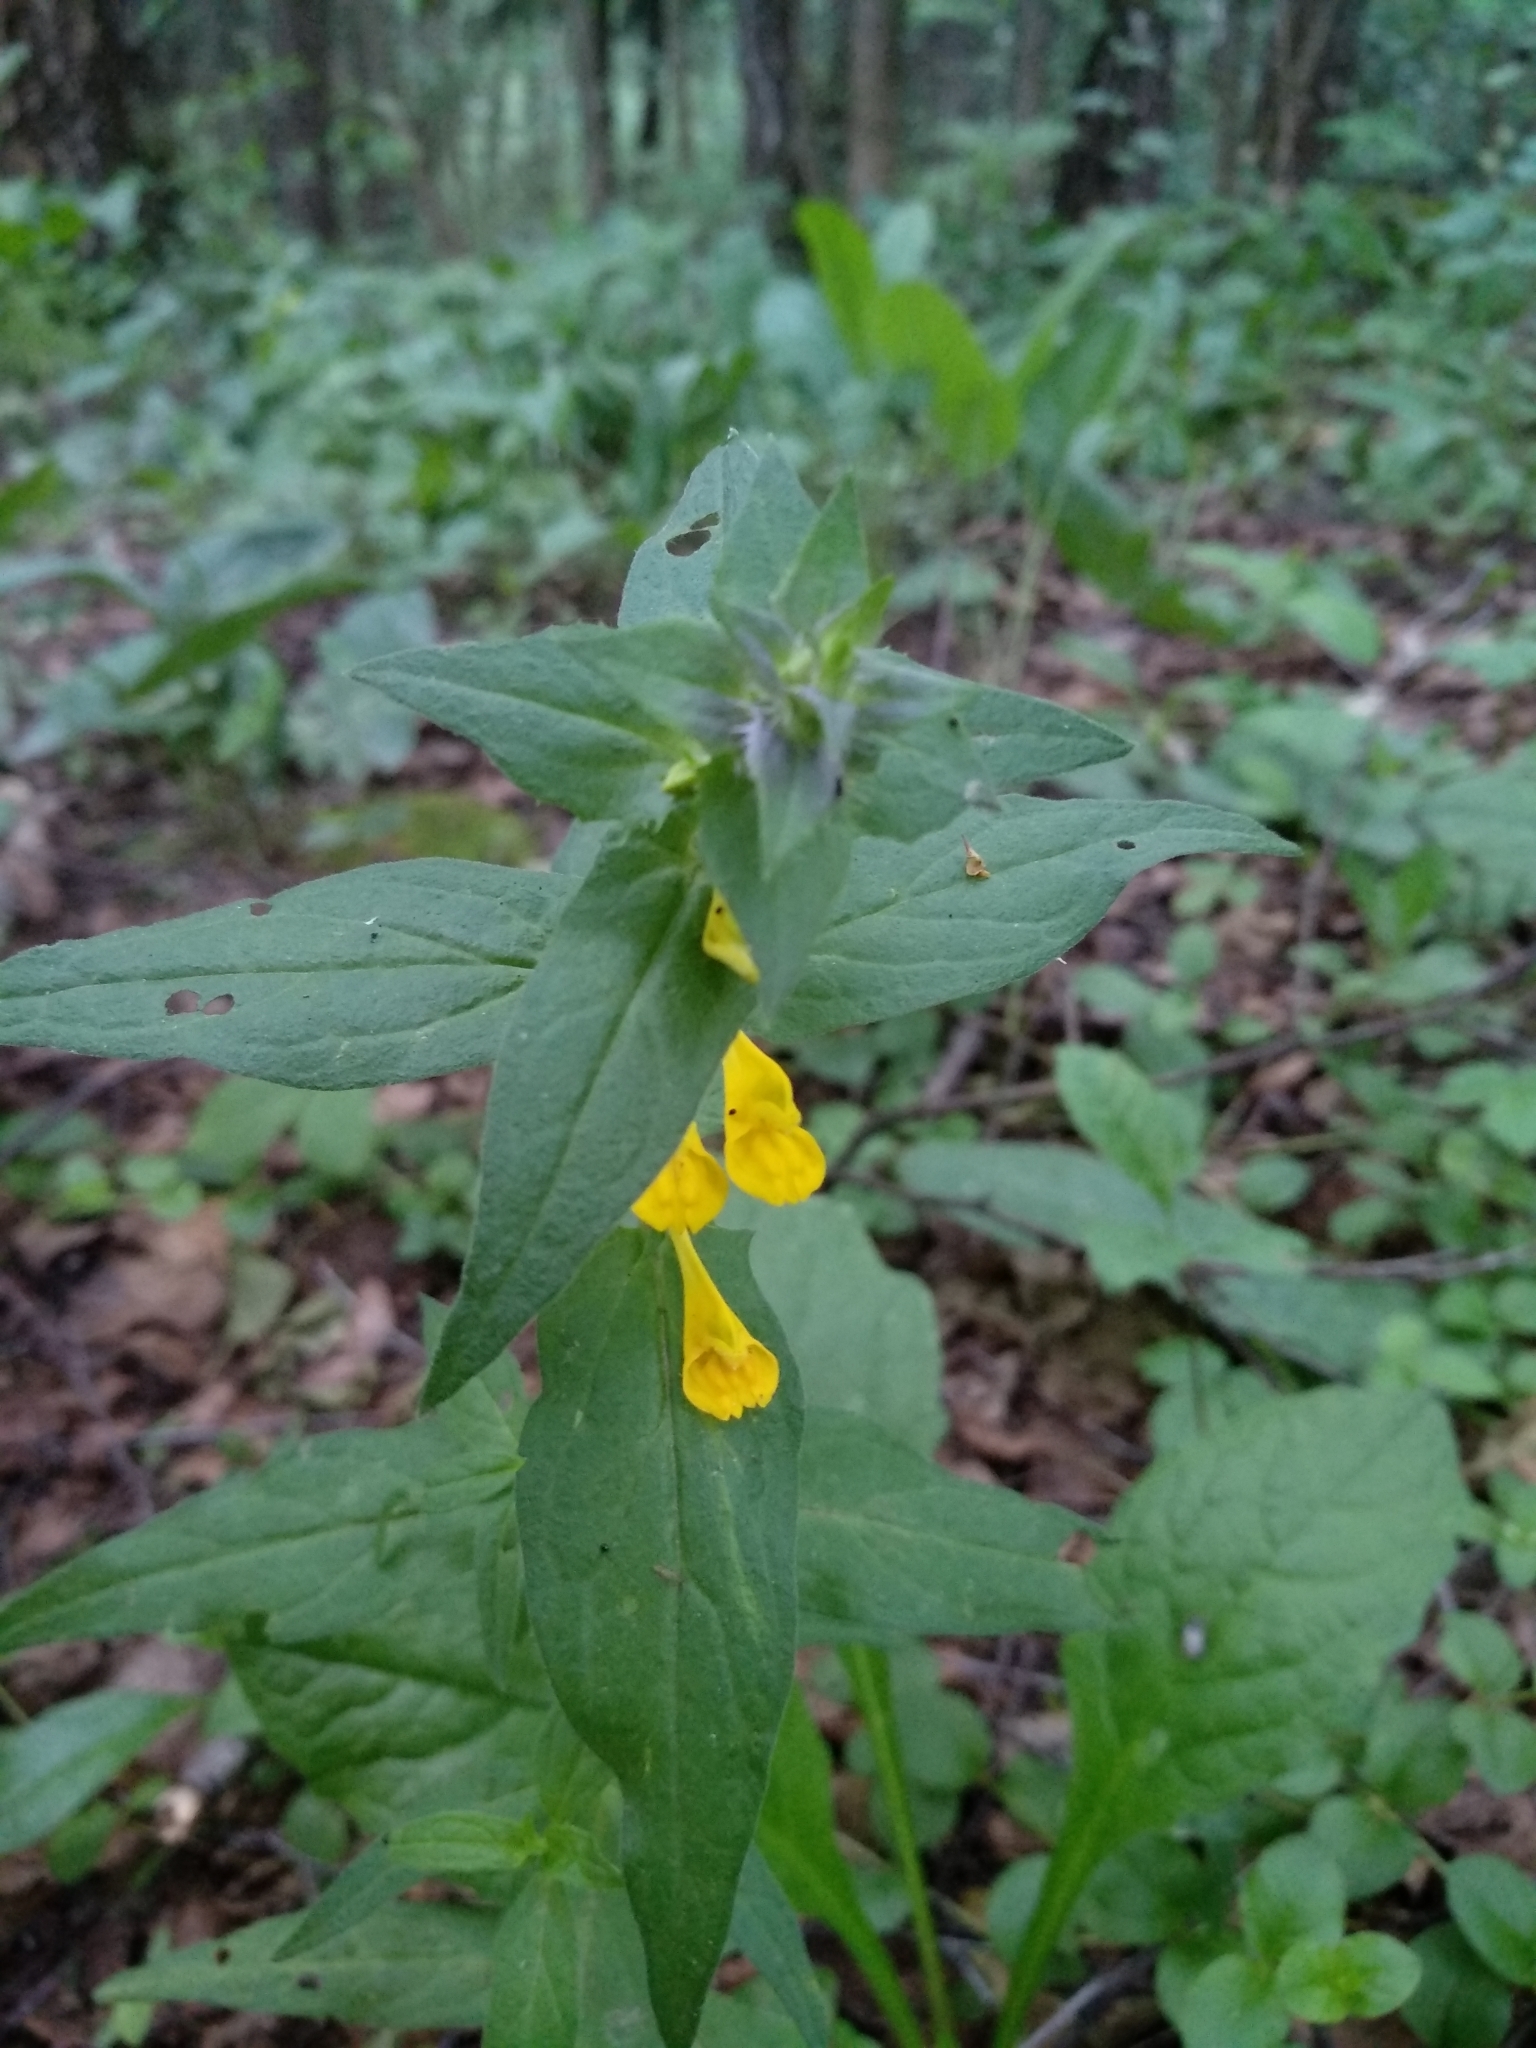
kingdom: Plantae
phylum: Tracheophyta
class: Magnoliopsida
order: Lamiales
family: Orobanchaceae
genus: Melampyrum
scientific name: Melampyrum nemorosum
